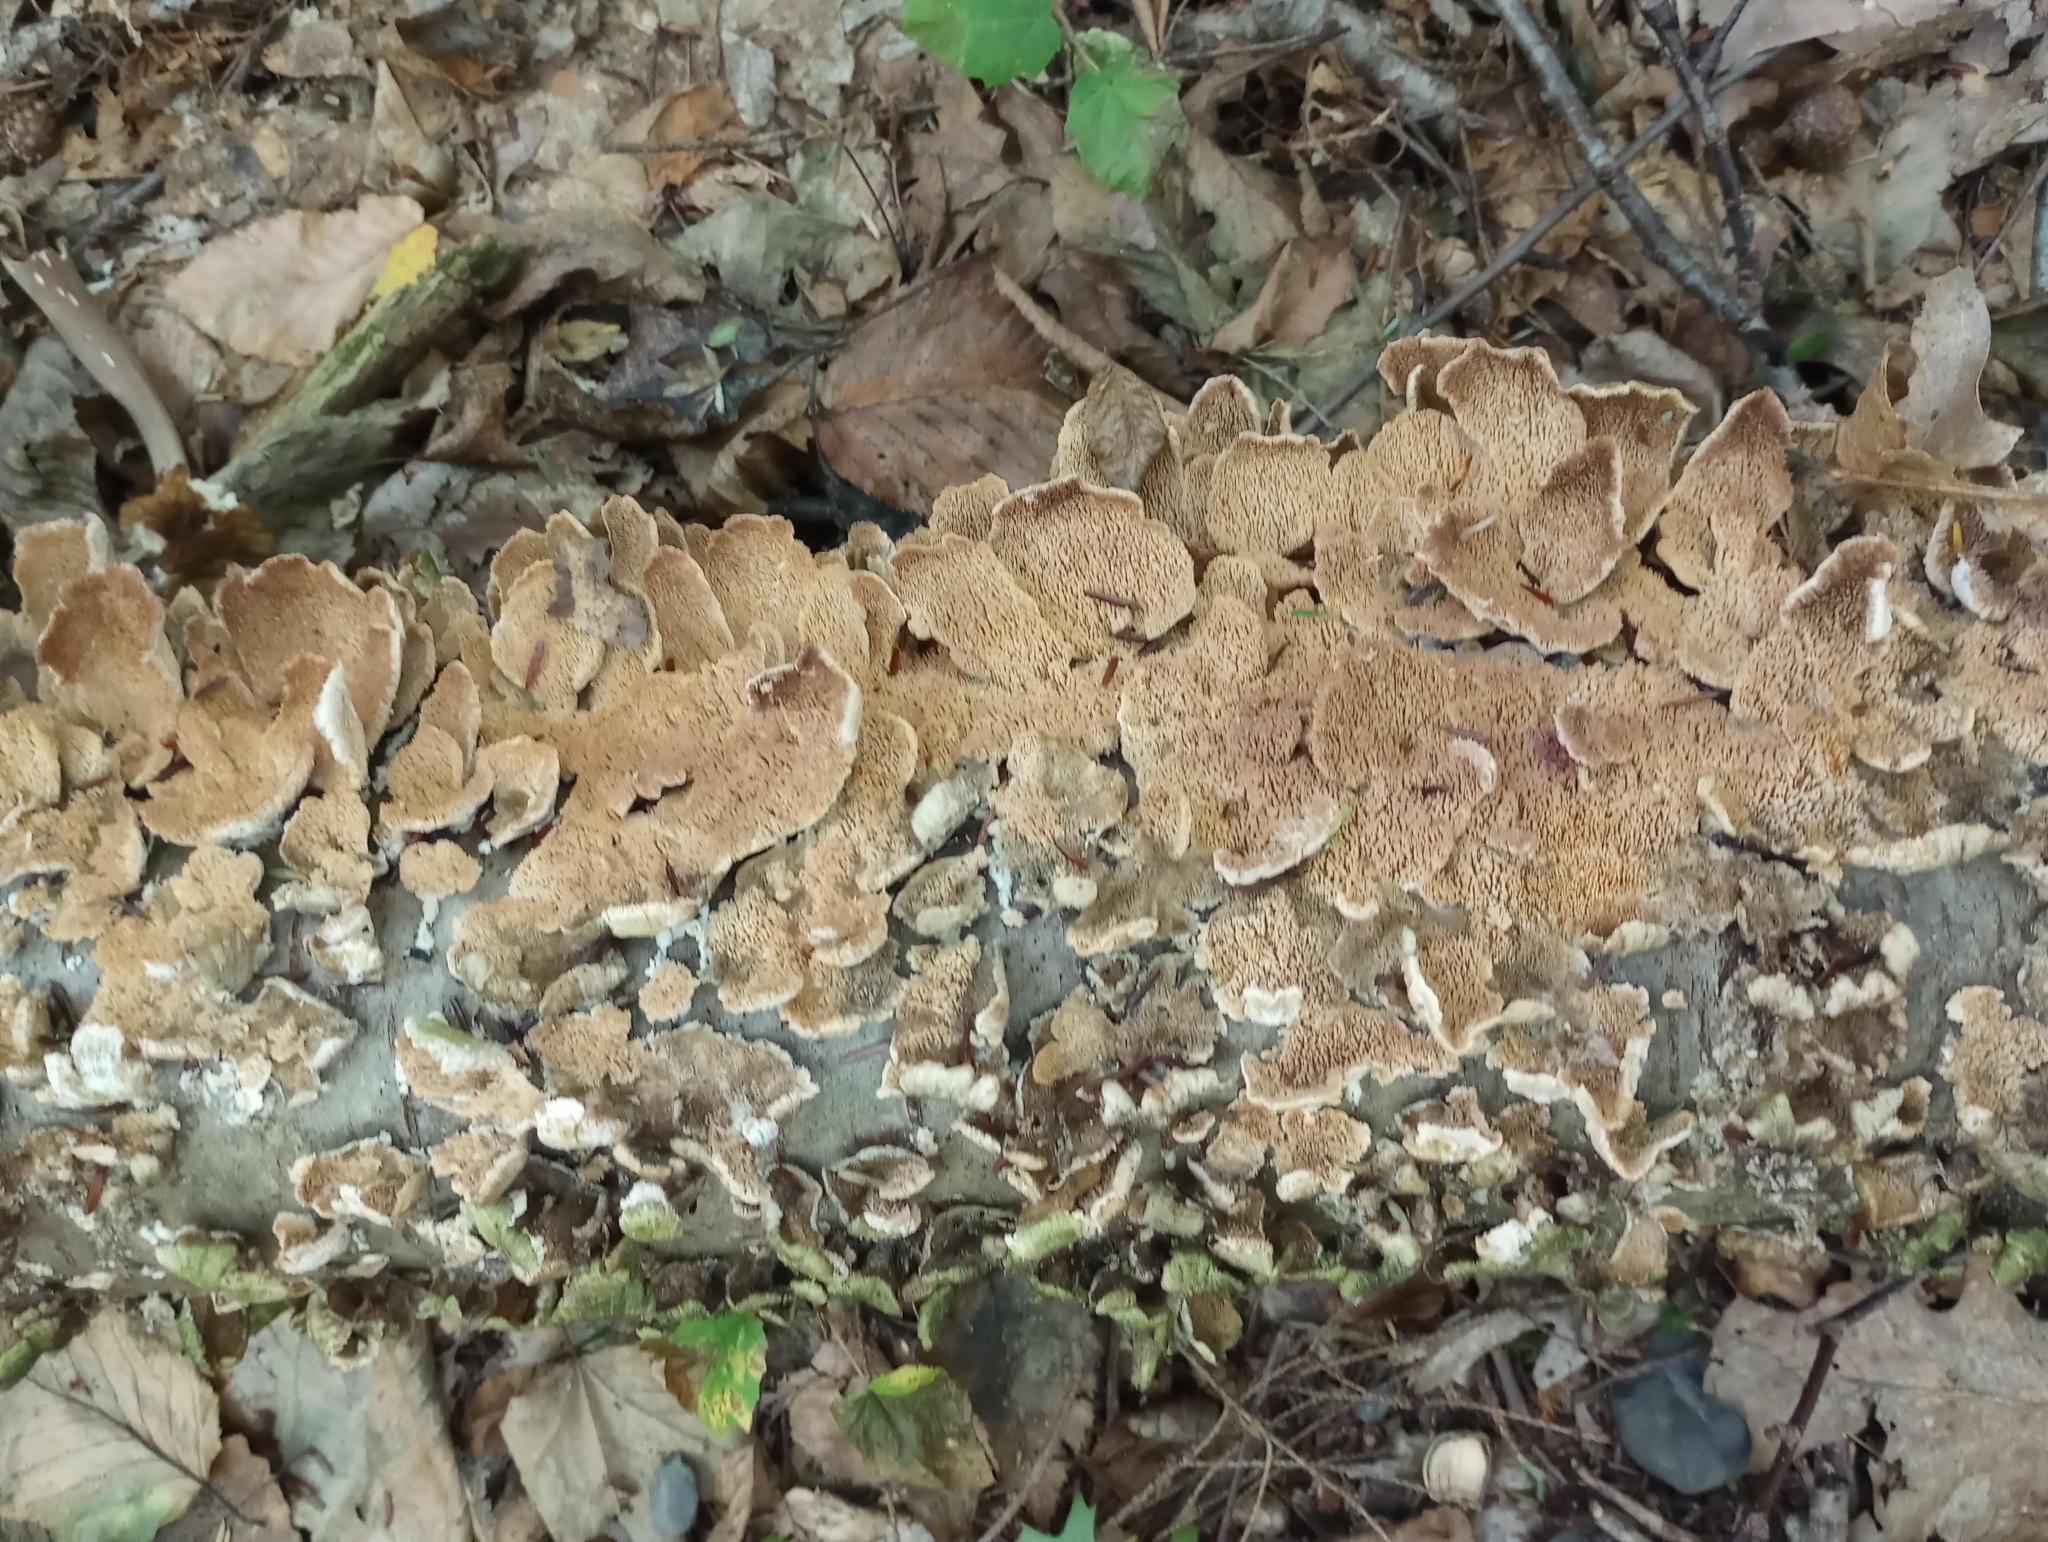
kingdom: Fungi
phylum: Basidiomycota
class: Agaricomycetes
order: Hymenochaetales
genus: Trichaptum
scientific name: Trichaptum biforme
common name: Violet-toothed polypore
